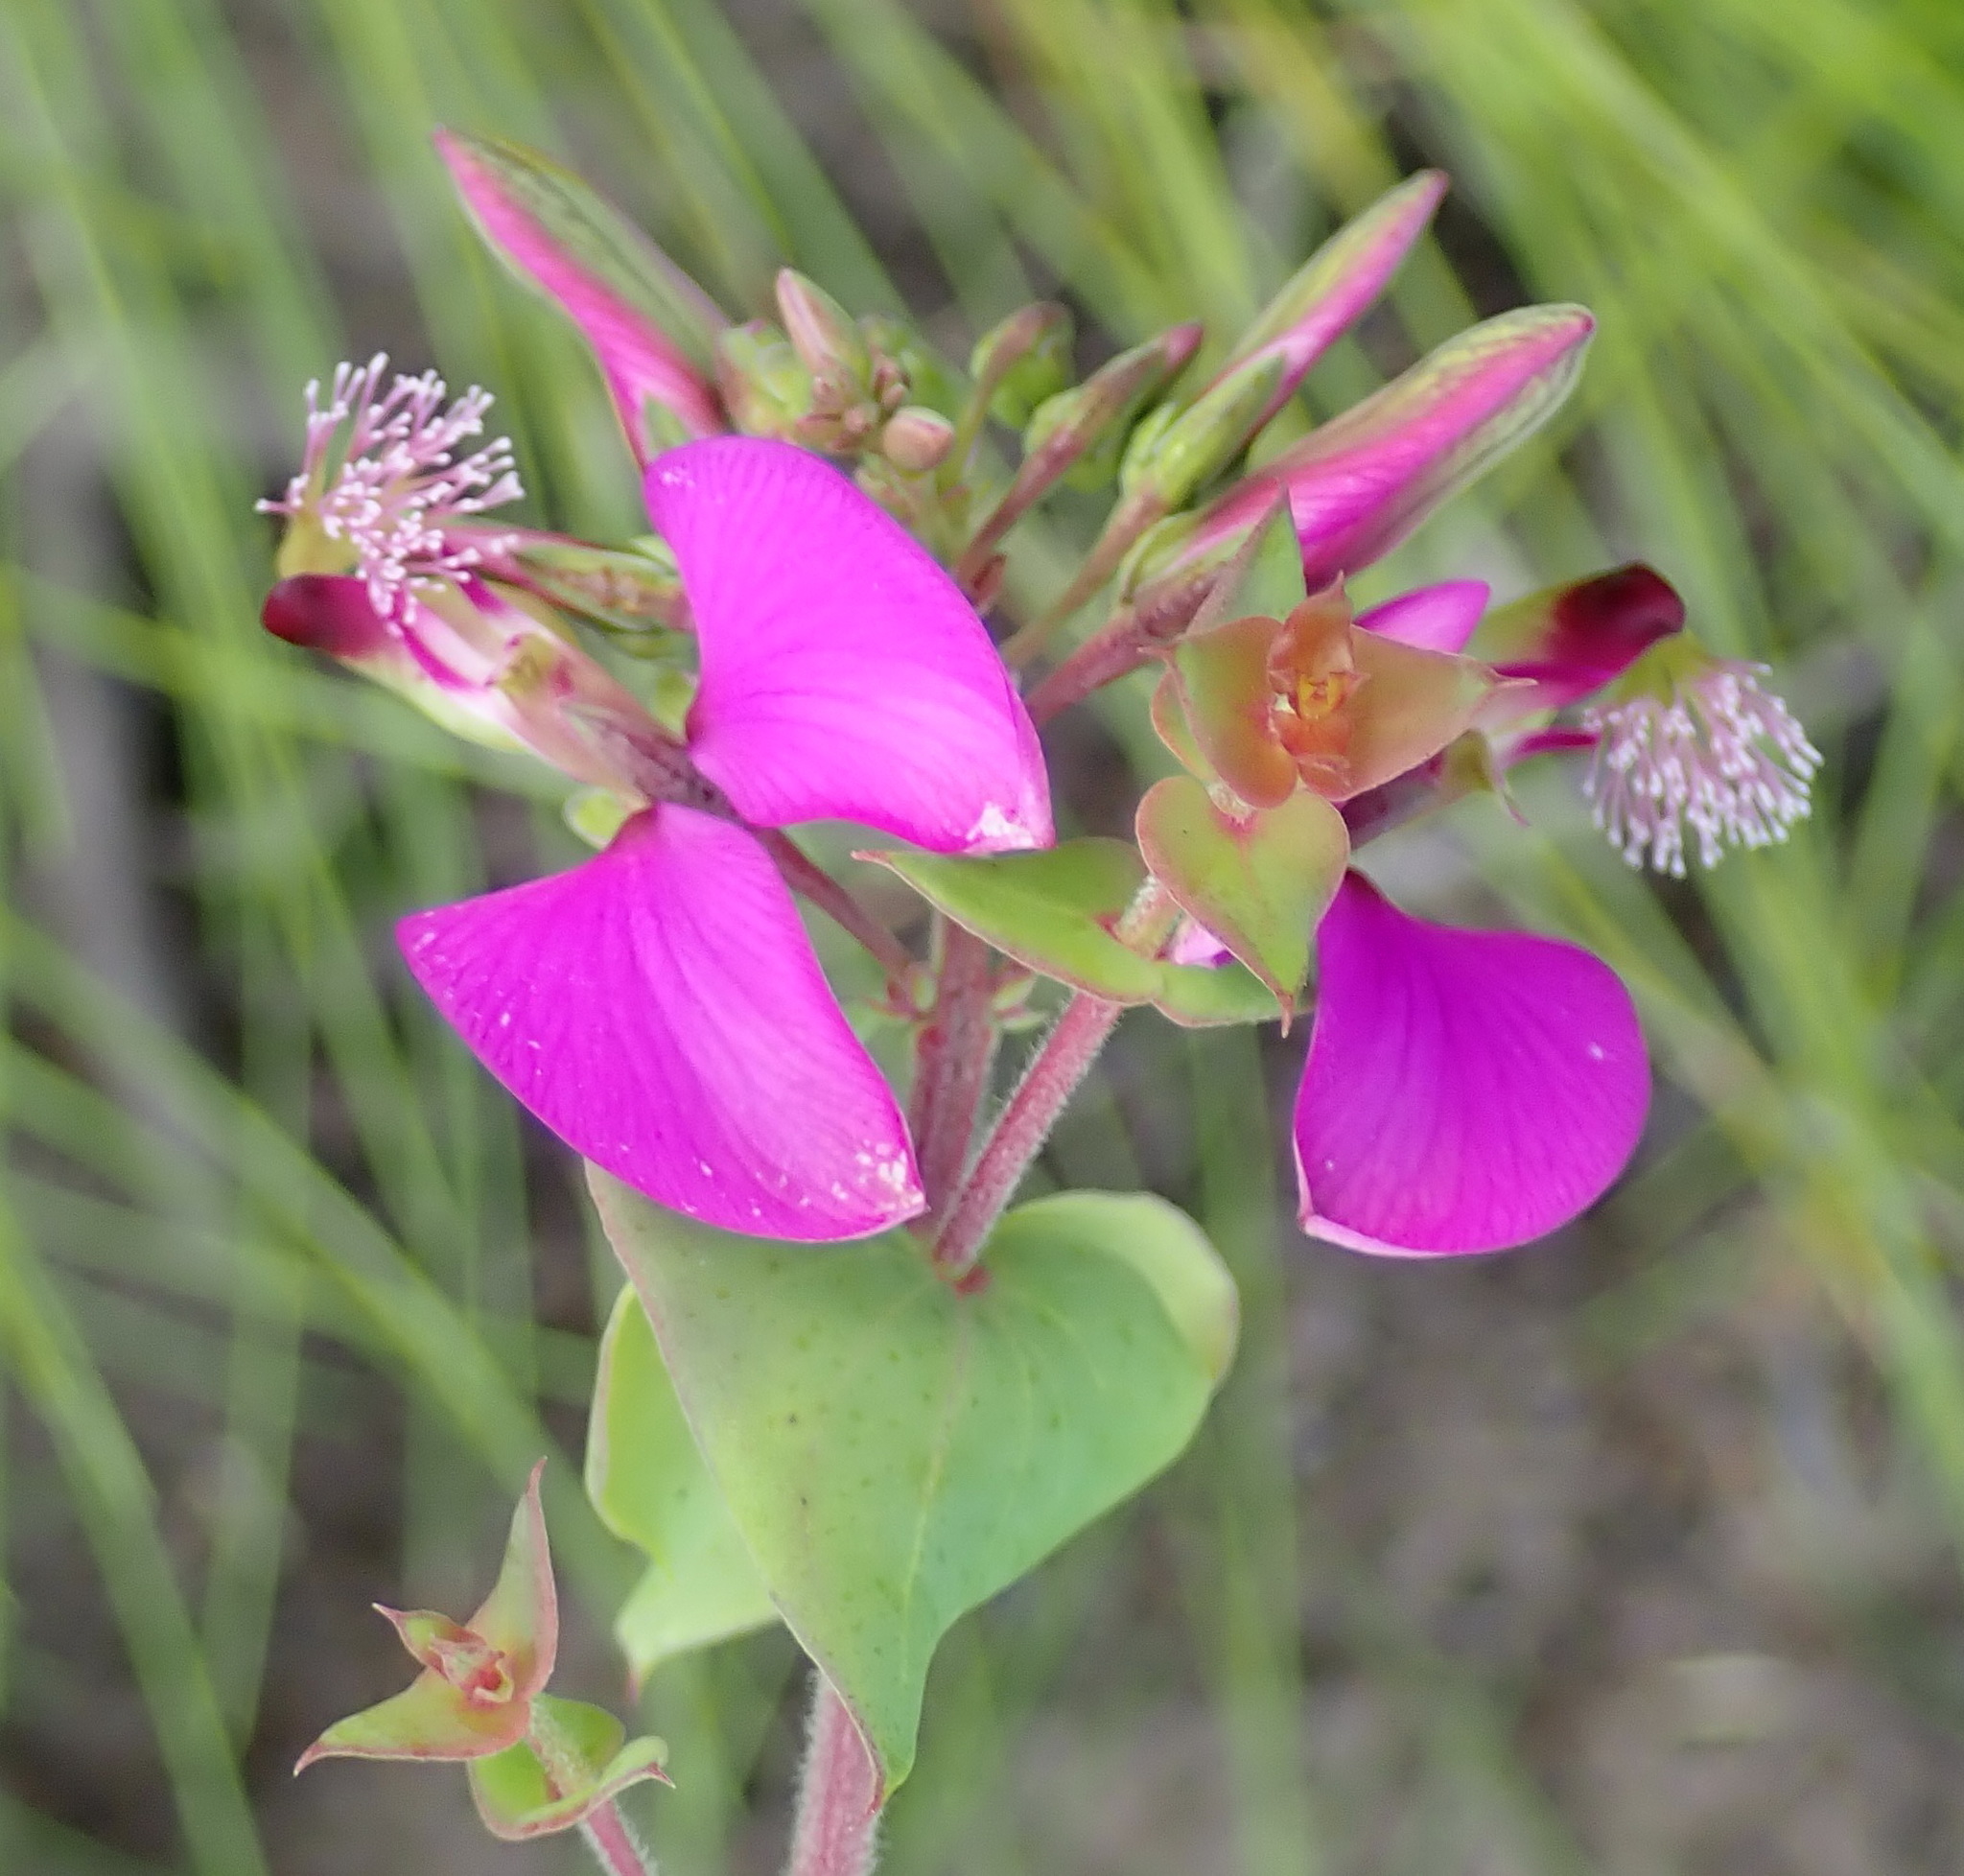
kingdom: Plantae
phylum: Tracheophyta
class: Magnoliopsida
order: Fabales
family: Polygalaceae
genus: Polygala
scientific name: Polygala fruticosa
